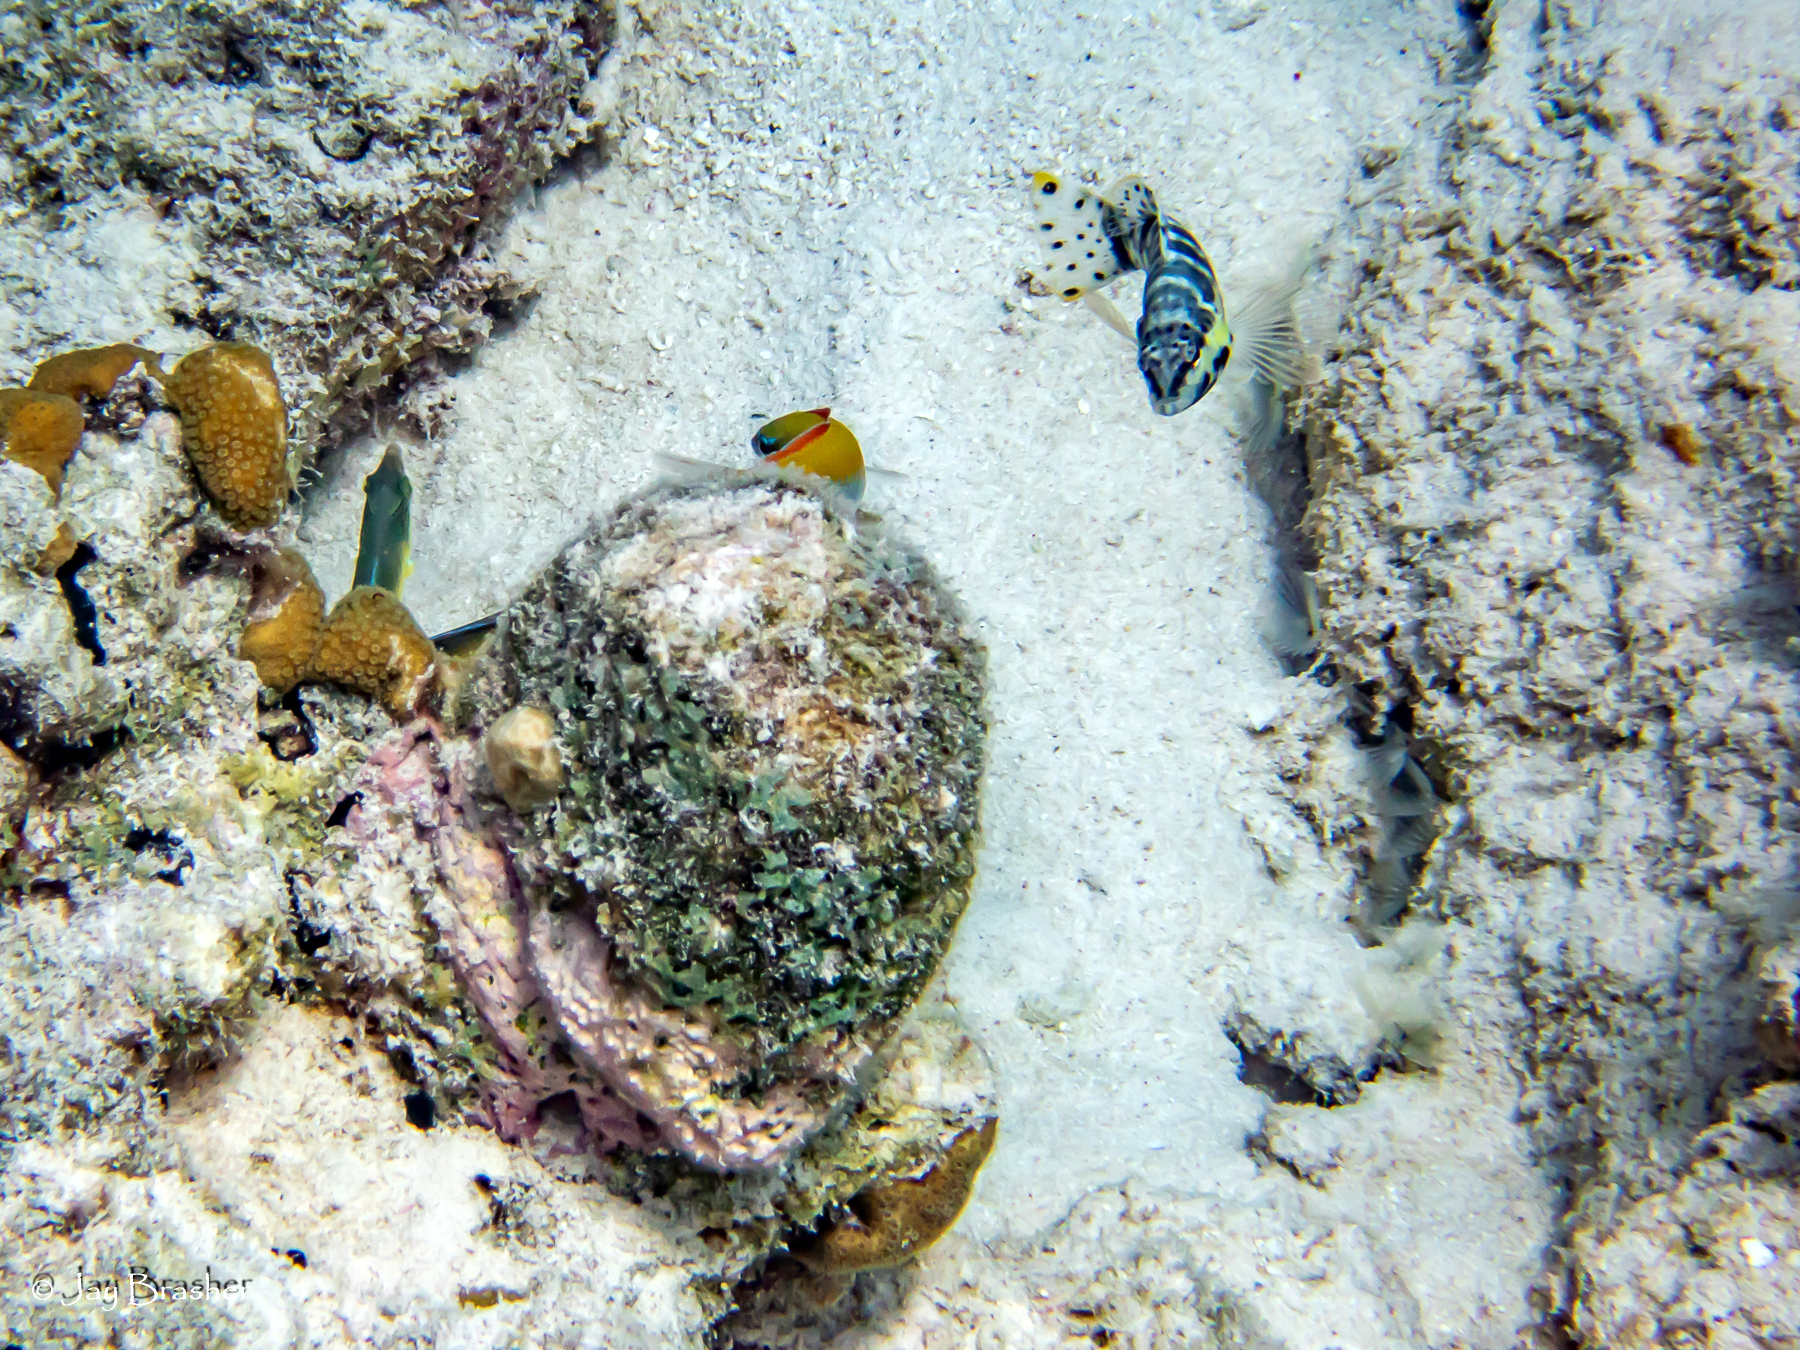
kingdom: Animalia
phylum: Chordata
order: Perciformes
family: Serranidae
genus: Serranus
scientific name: Serranus tigrinus
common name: Harlequin bass
